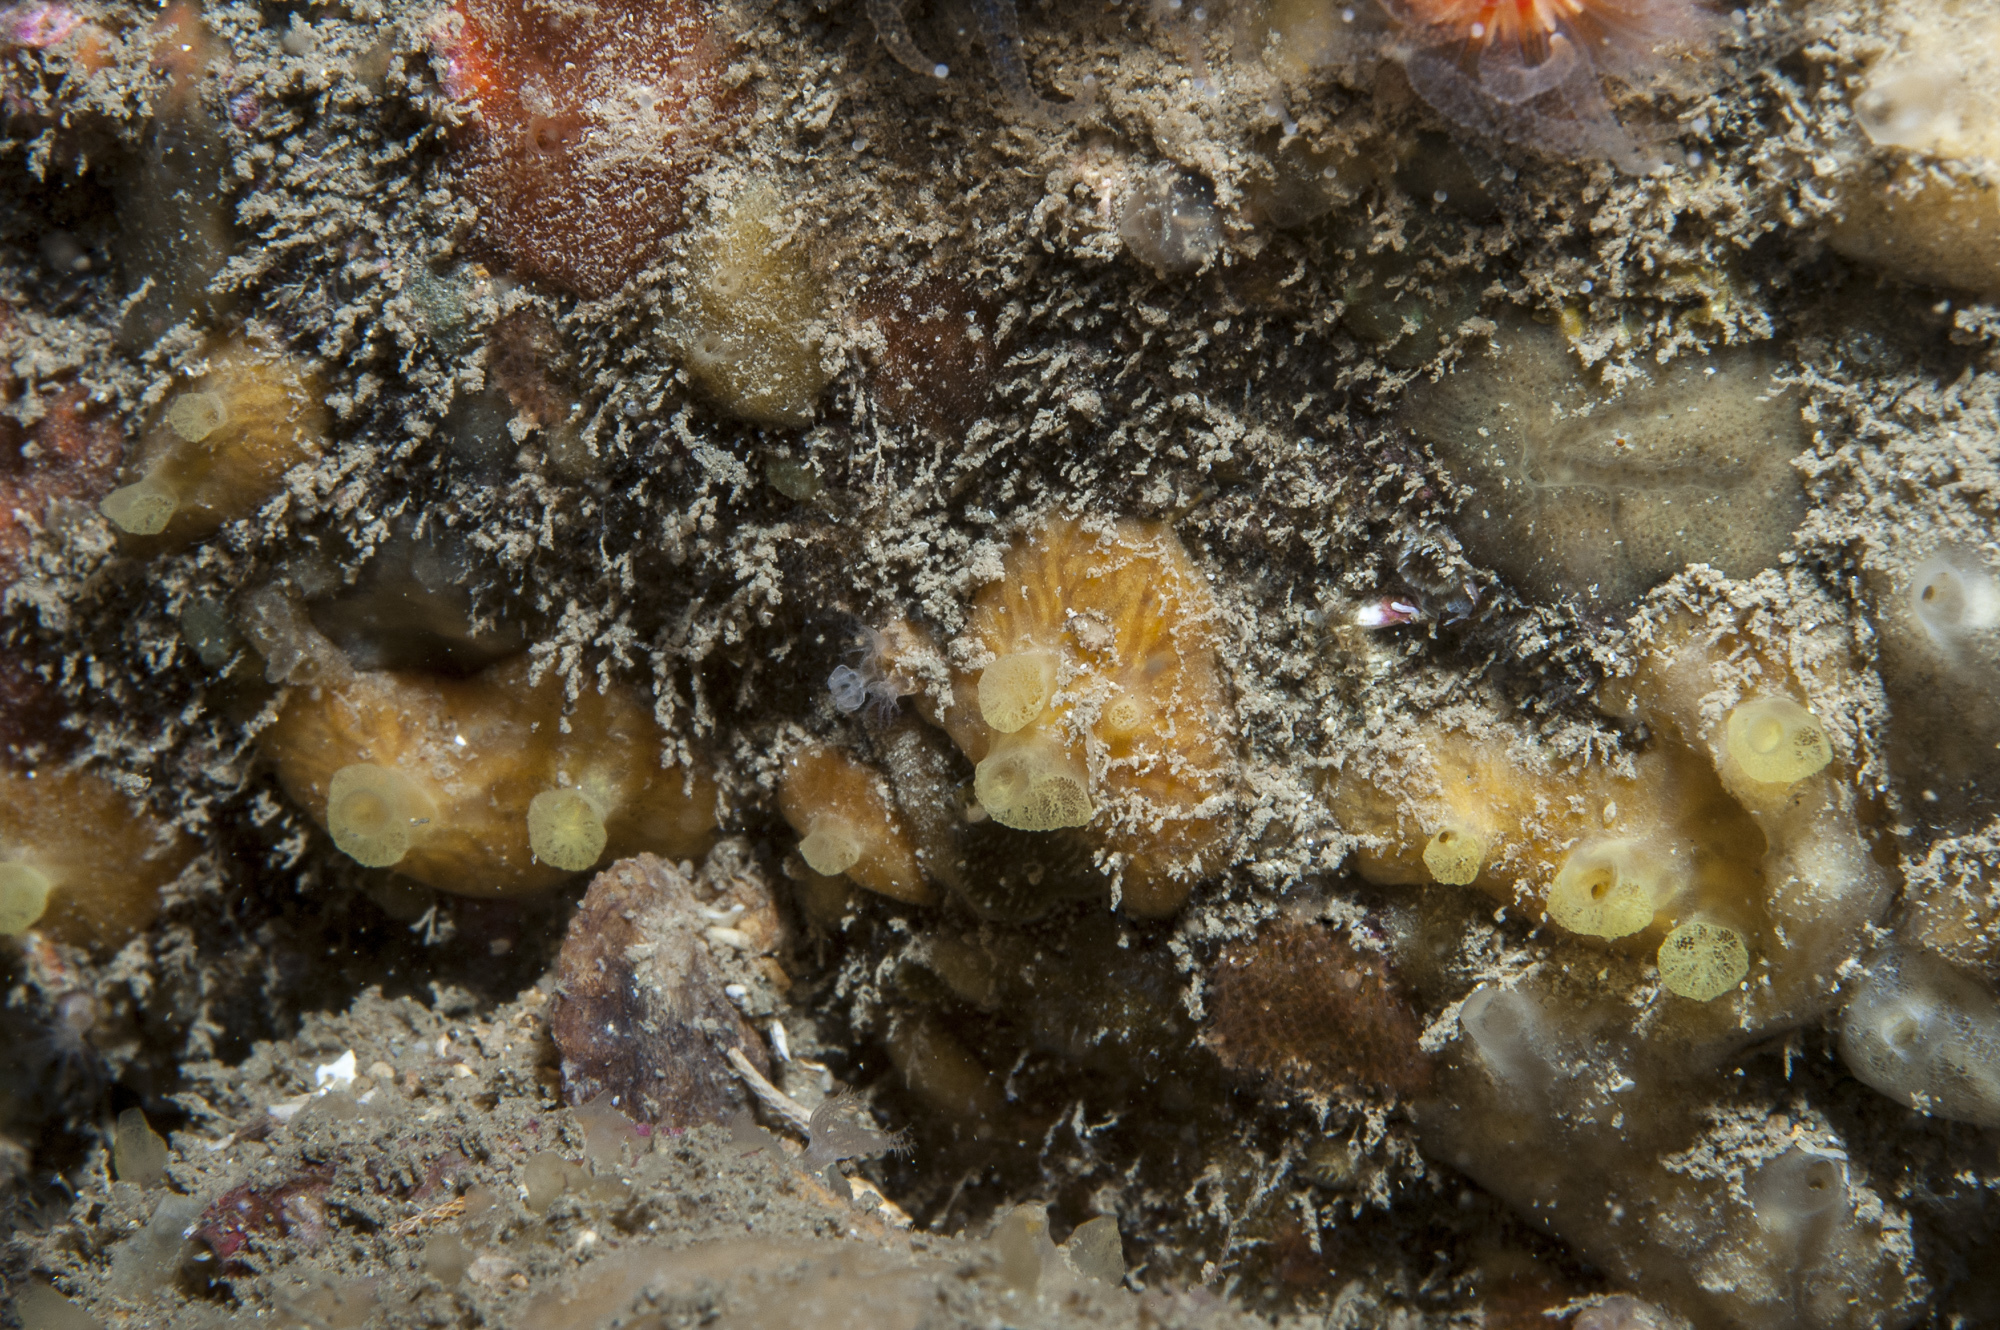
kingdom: Animalia
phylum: Porifera
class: Demospongiae
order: Poecilosclerida
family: Hymedesmiidae
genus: Hymedesmia
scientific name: Hymedesmia rathlinia
